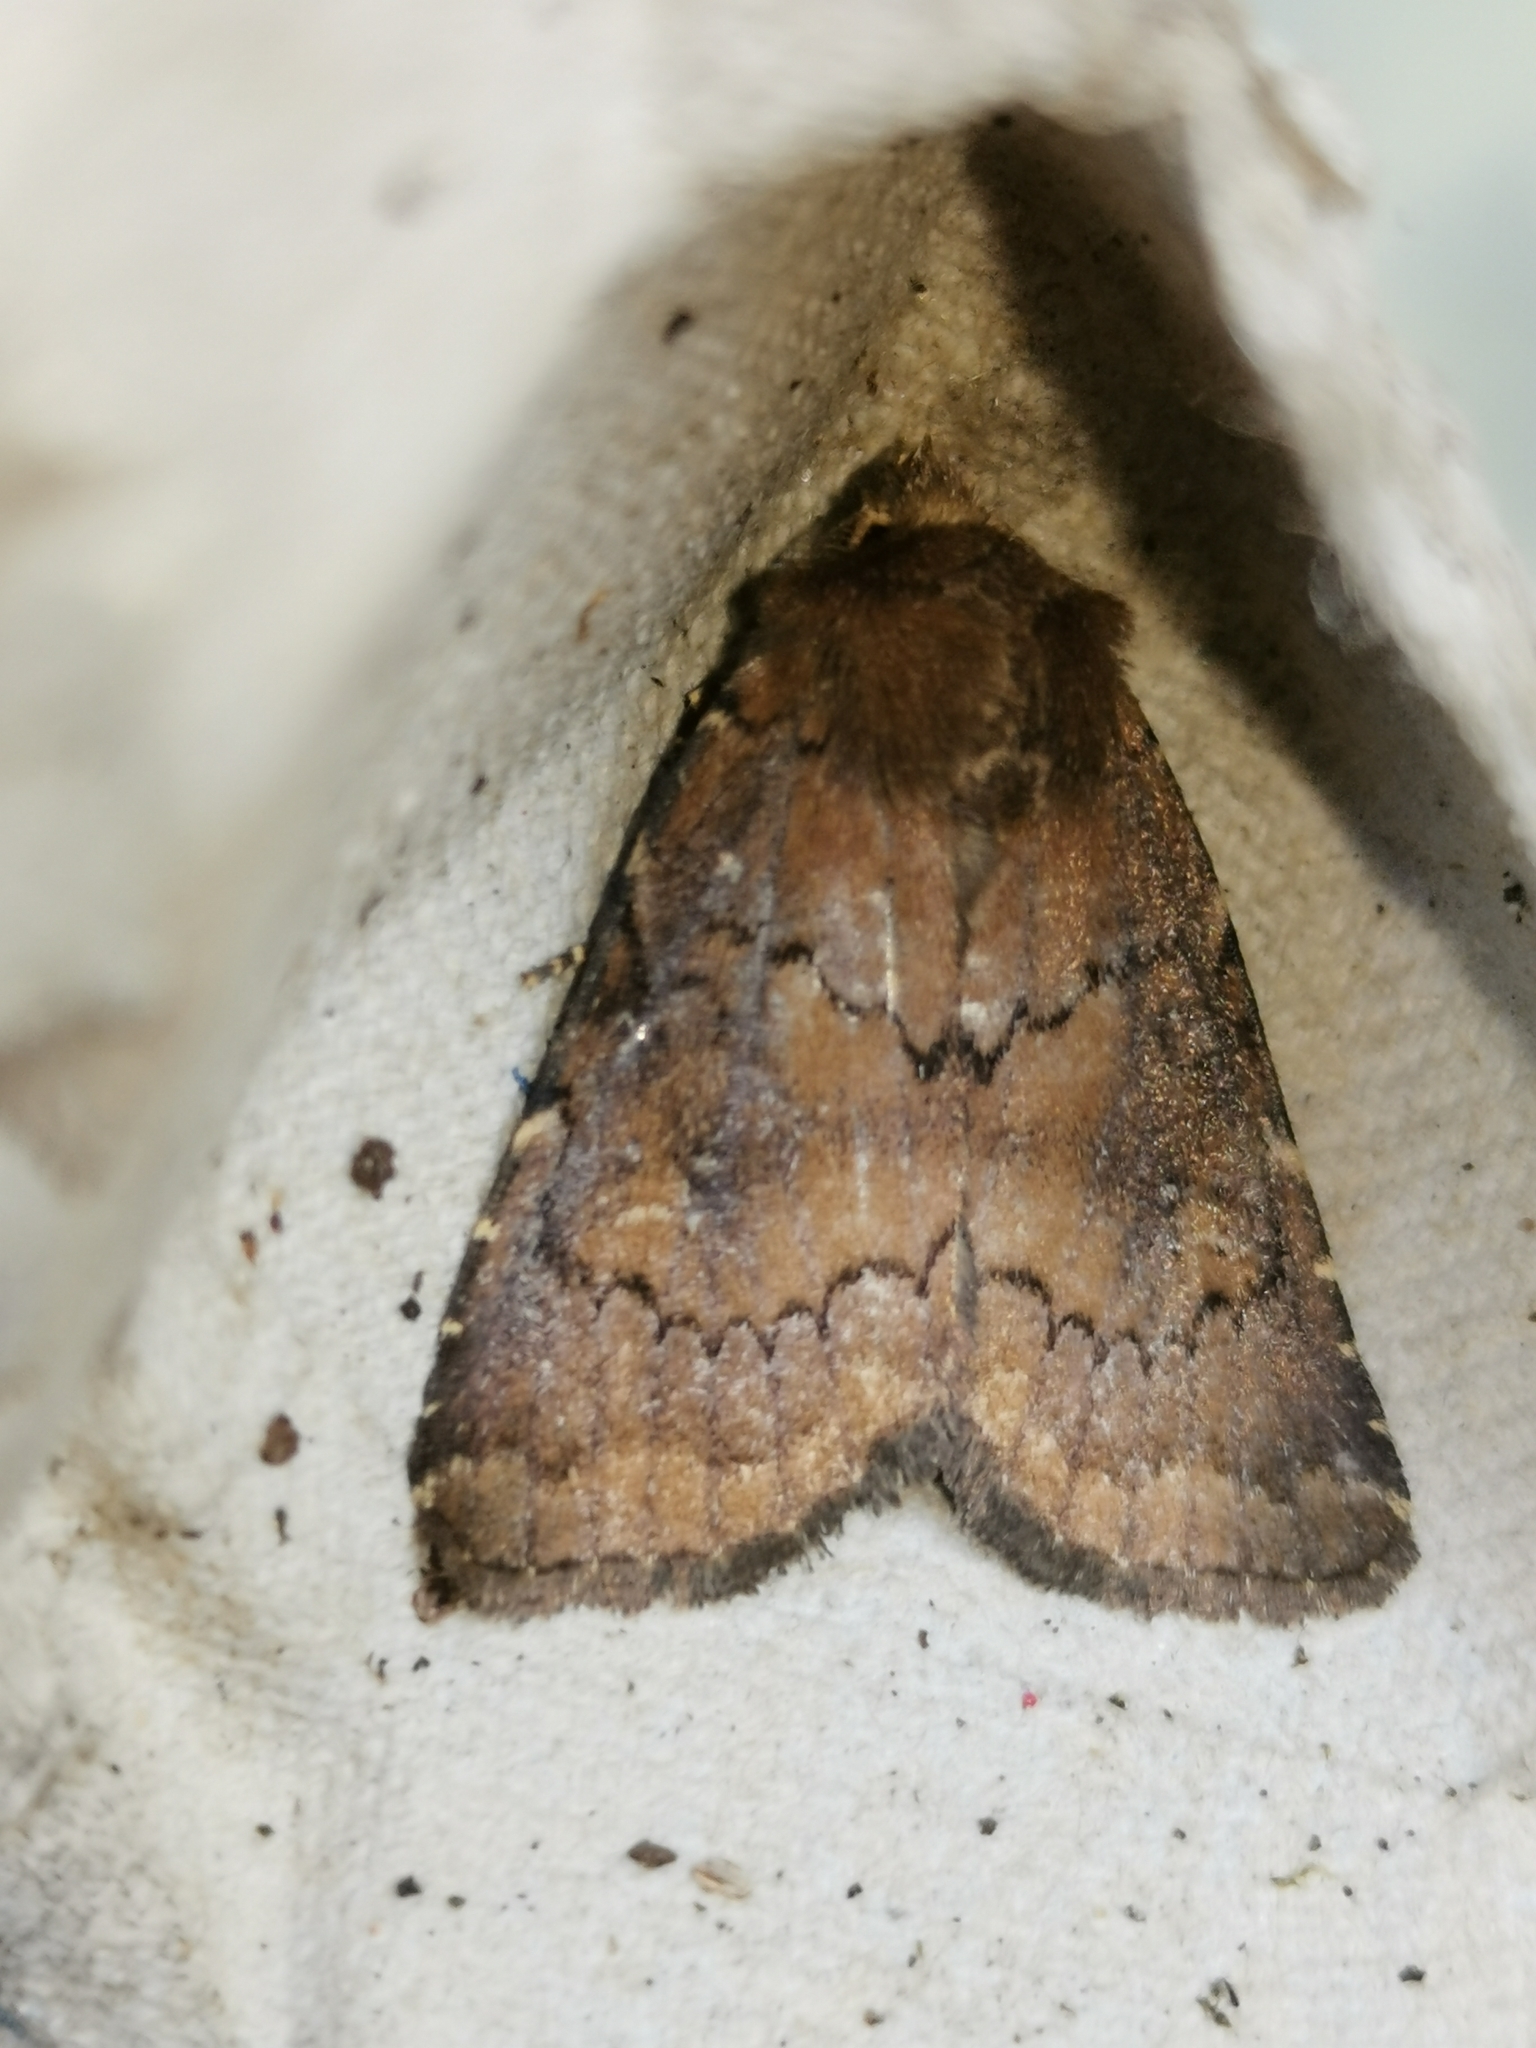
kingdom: Animalia
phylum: Arthropoda
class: Insecta
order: Lepidoptera
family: Noctuidae
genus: Charanyca
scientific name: Charanyca ferruginea
